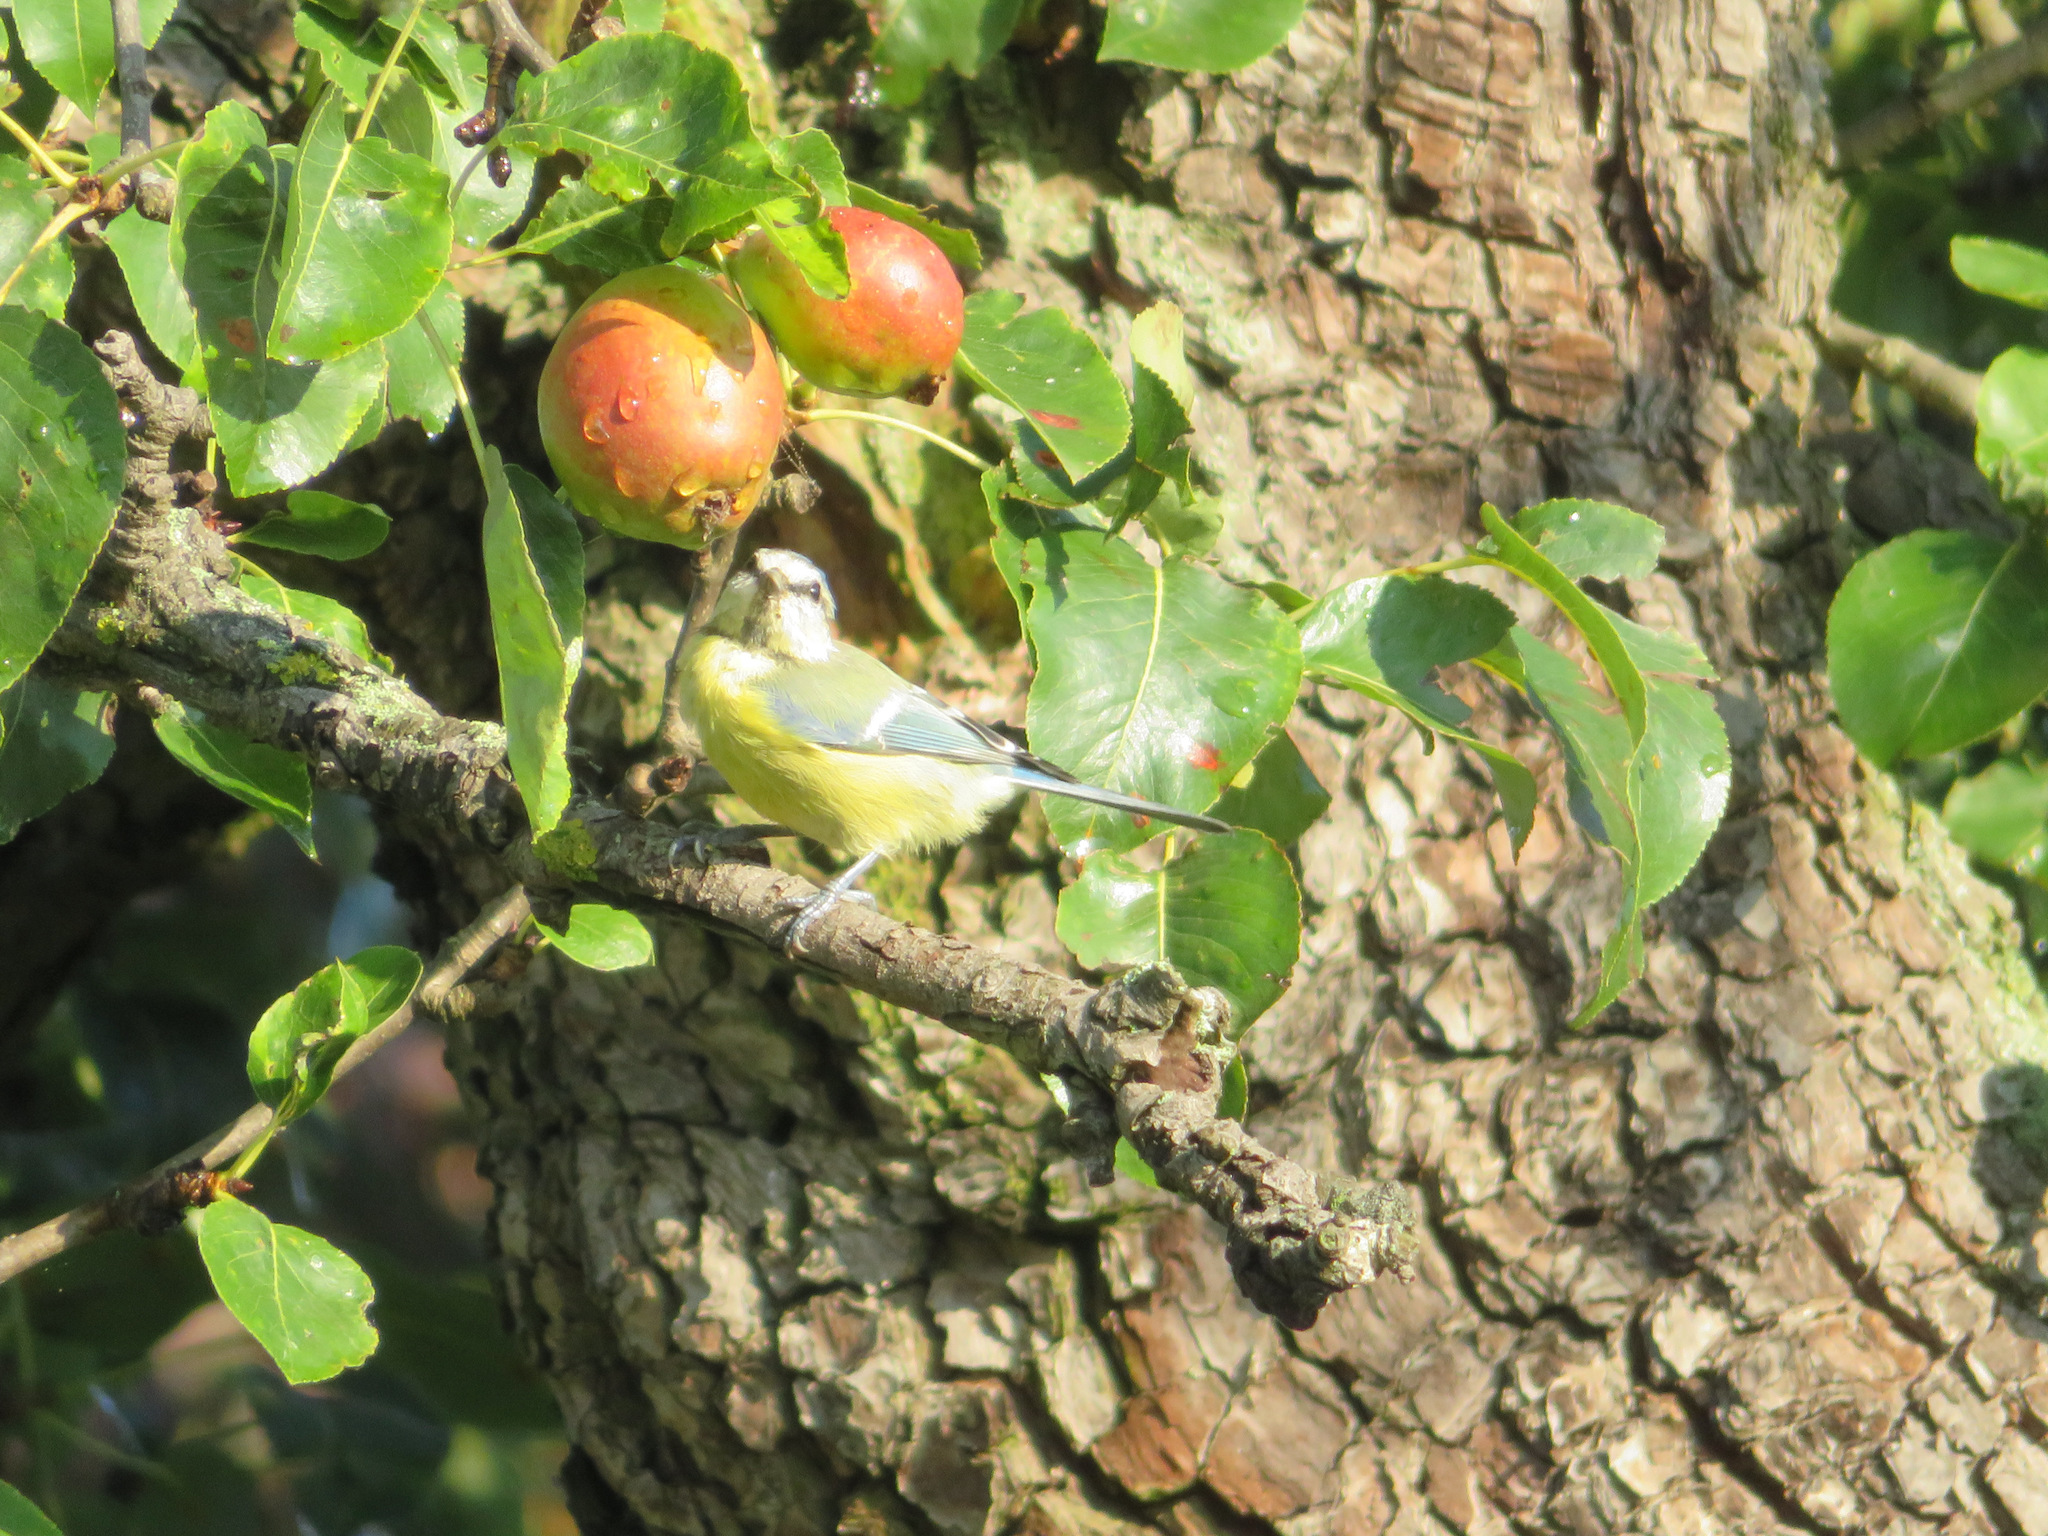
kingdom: Animalia
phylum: Chordata
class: Aves
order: Passeriformes
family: Paridae
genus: Cyanistes
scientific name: Cyanistes caeruleus
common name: Eurasian blue tit
